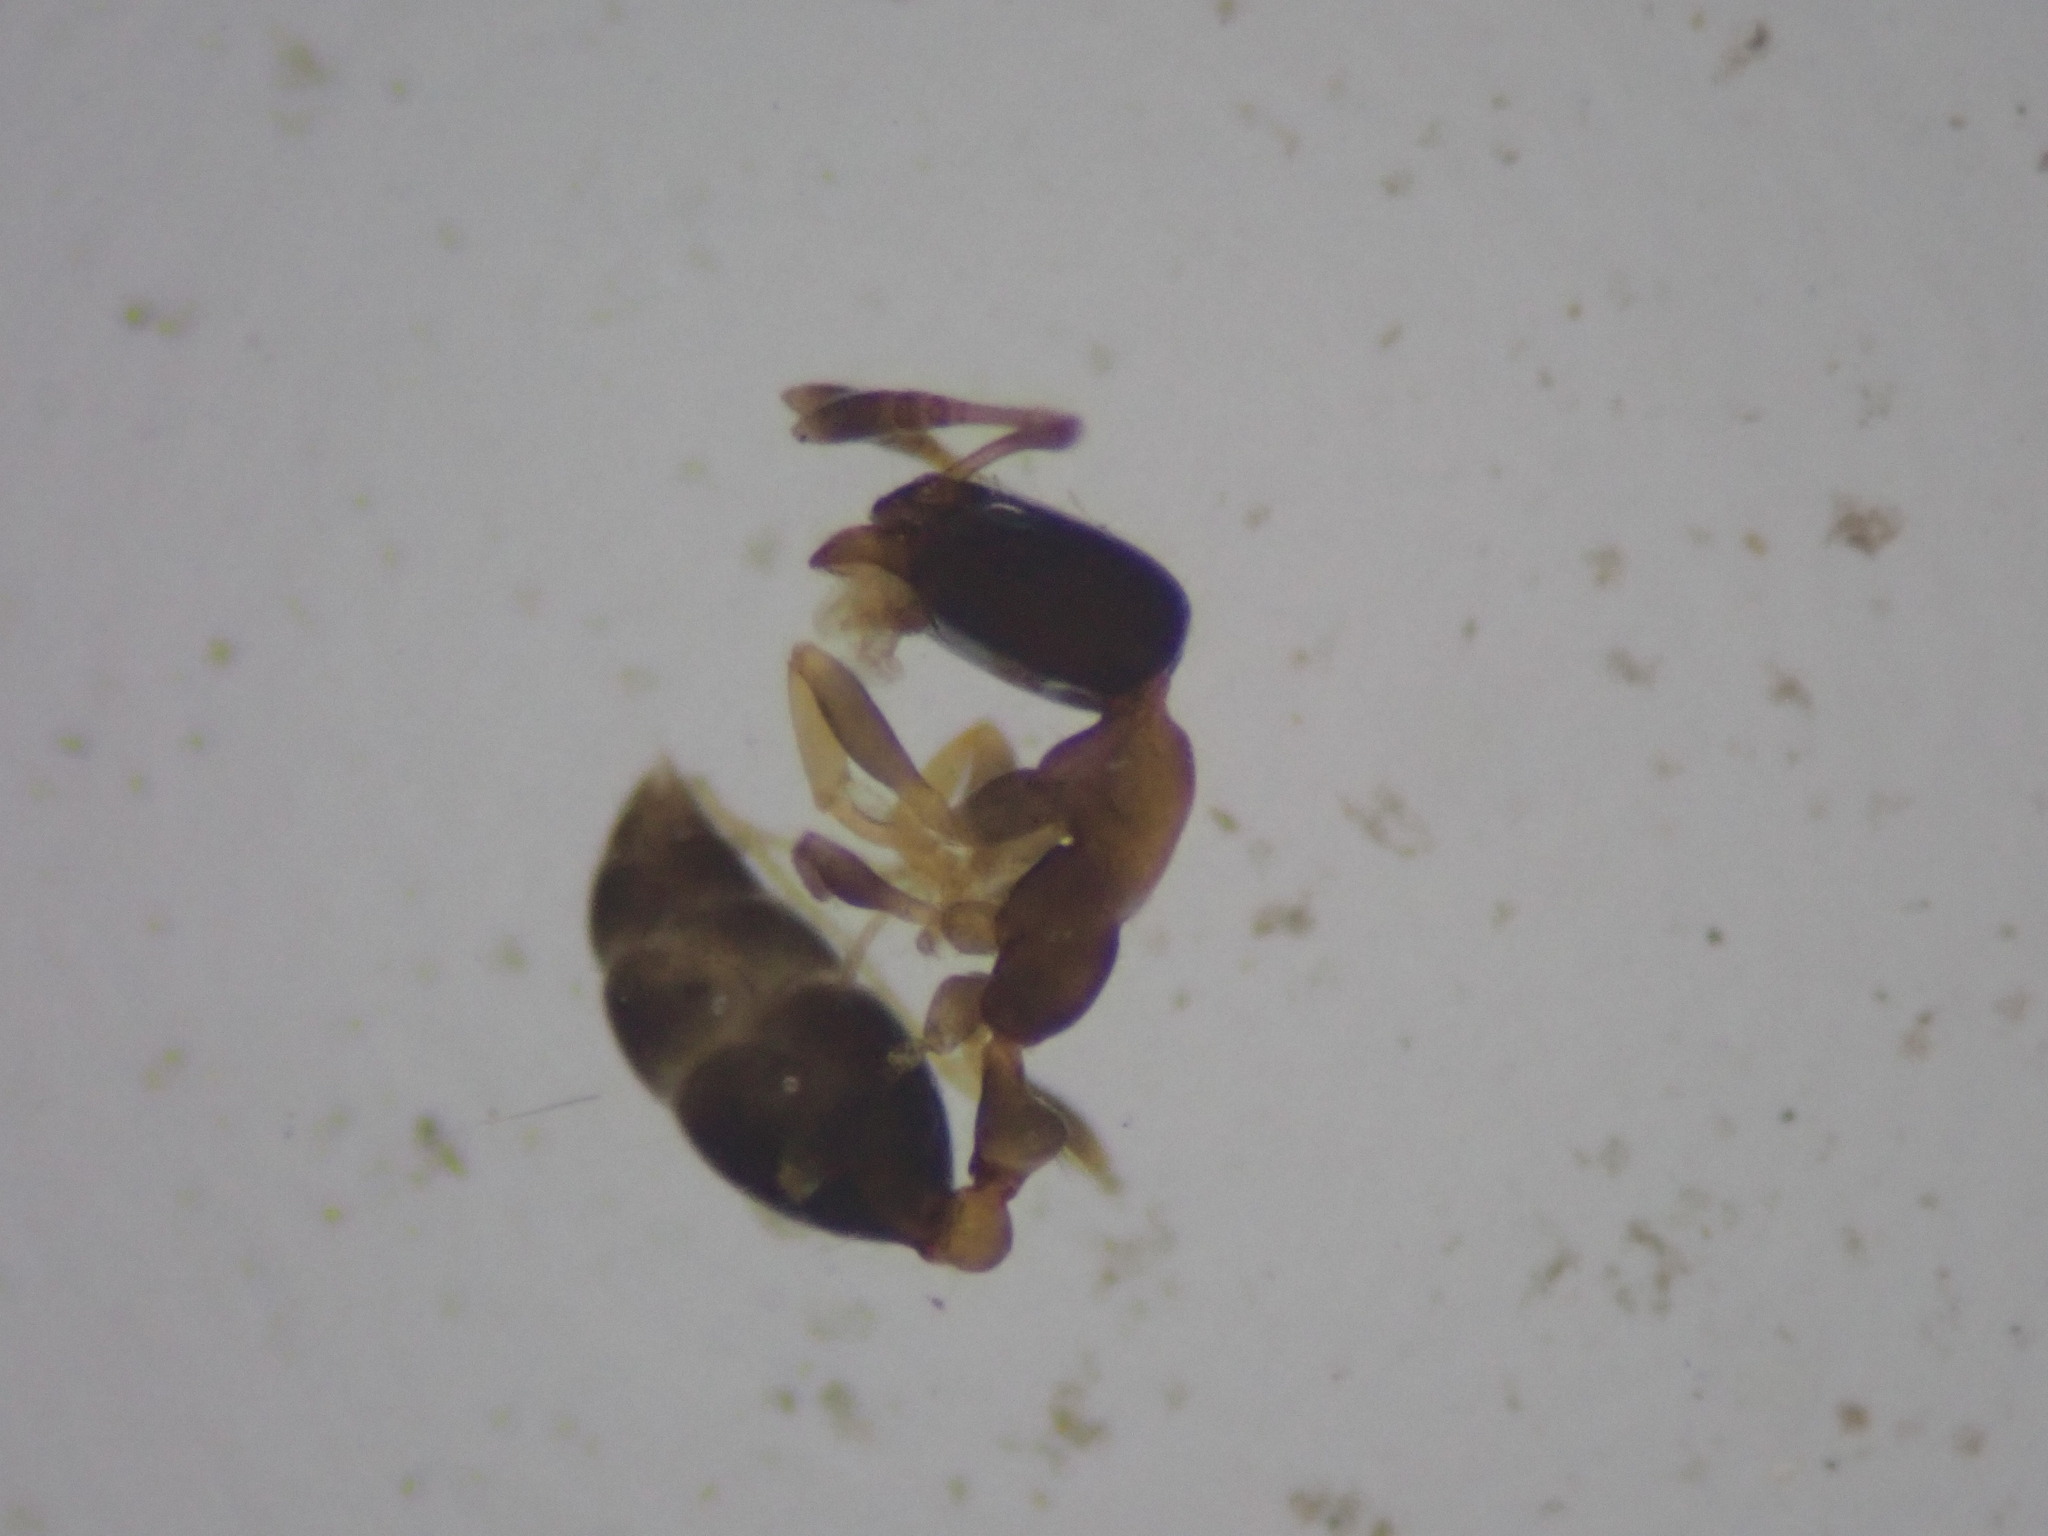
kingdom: Animalia
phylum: Arthropoda
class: Insecta
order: Hymenoptera
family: Formicidae
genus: Monomorium
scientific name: Monomorium floricola
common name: Bicolored trailing ant
